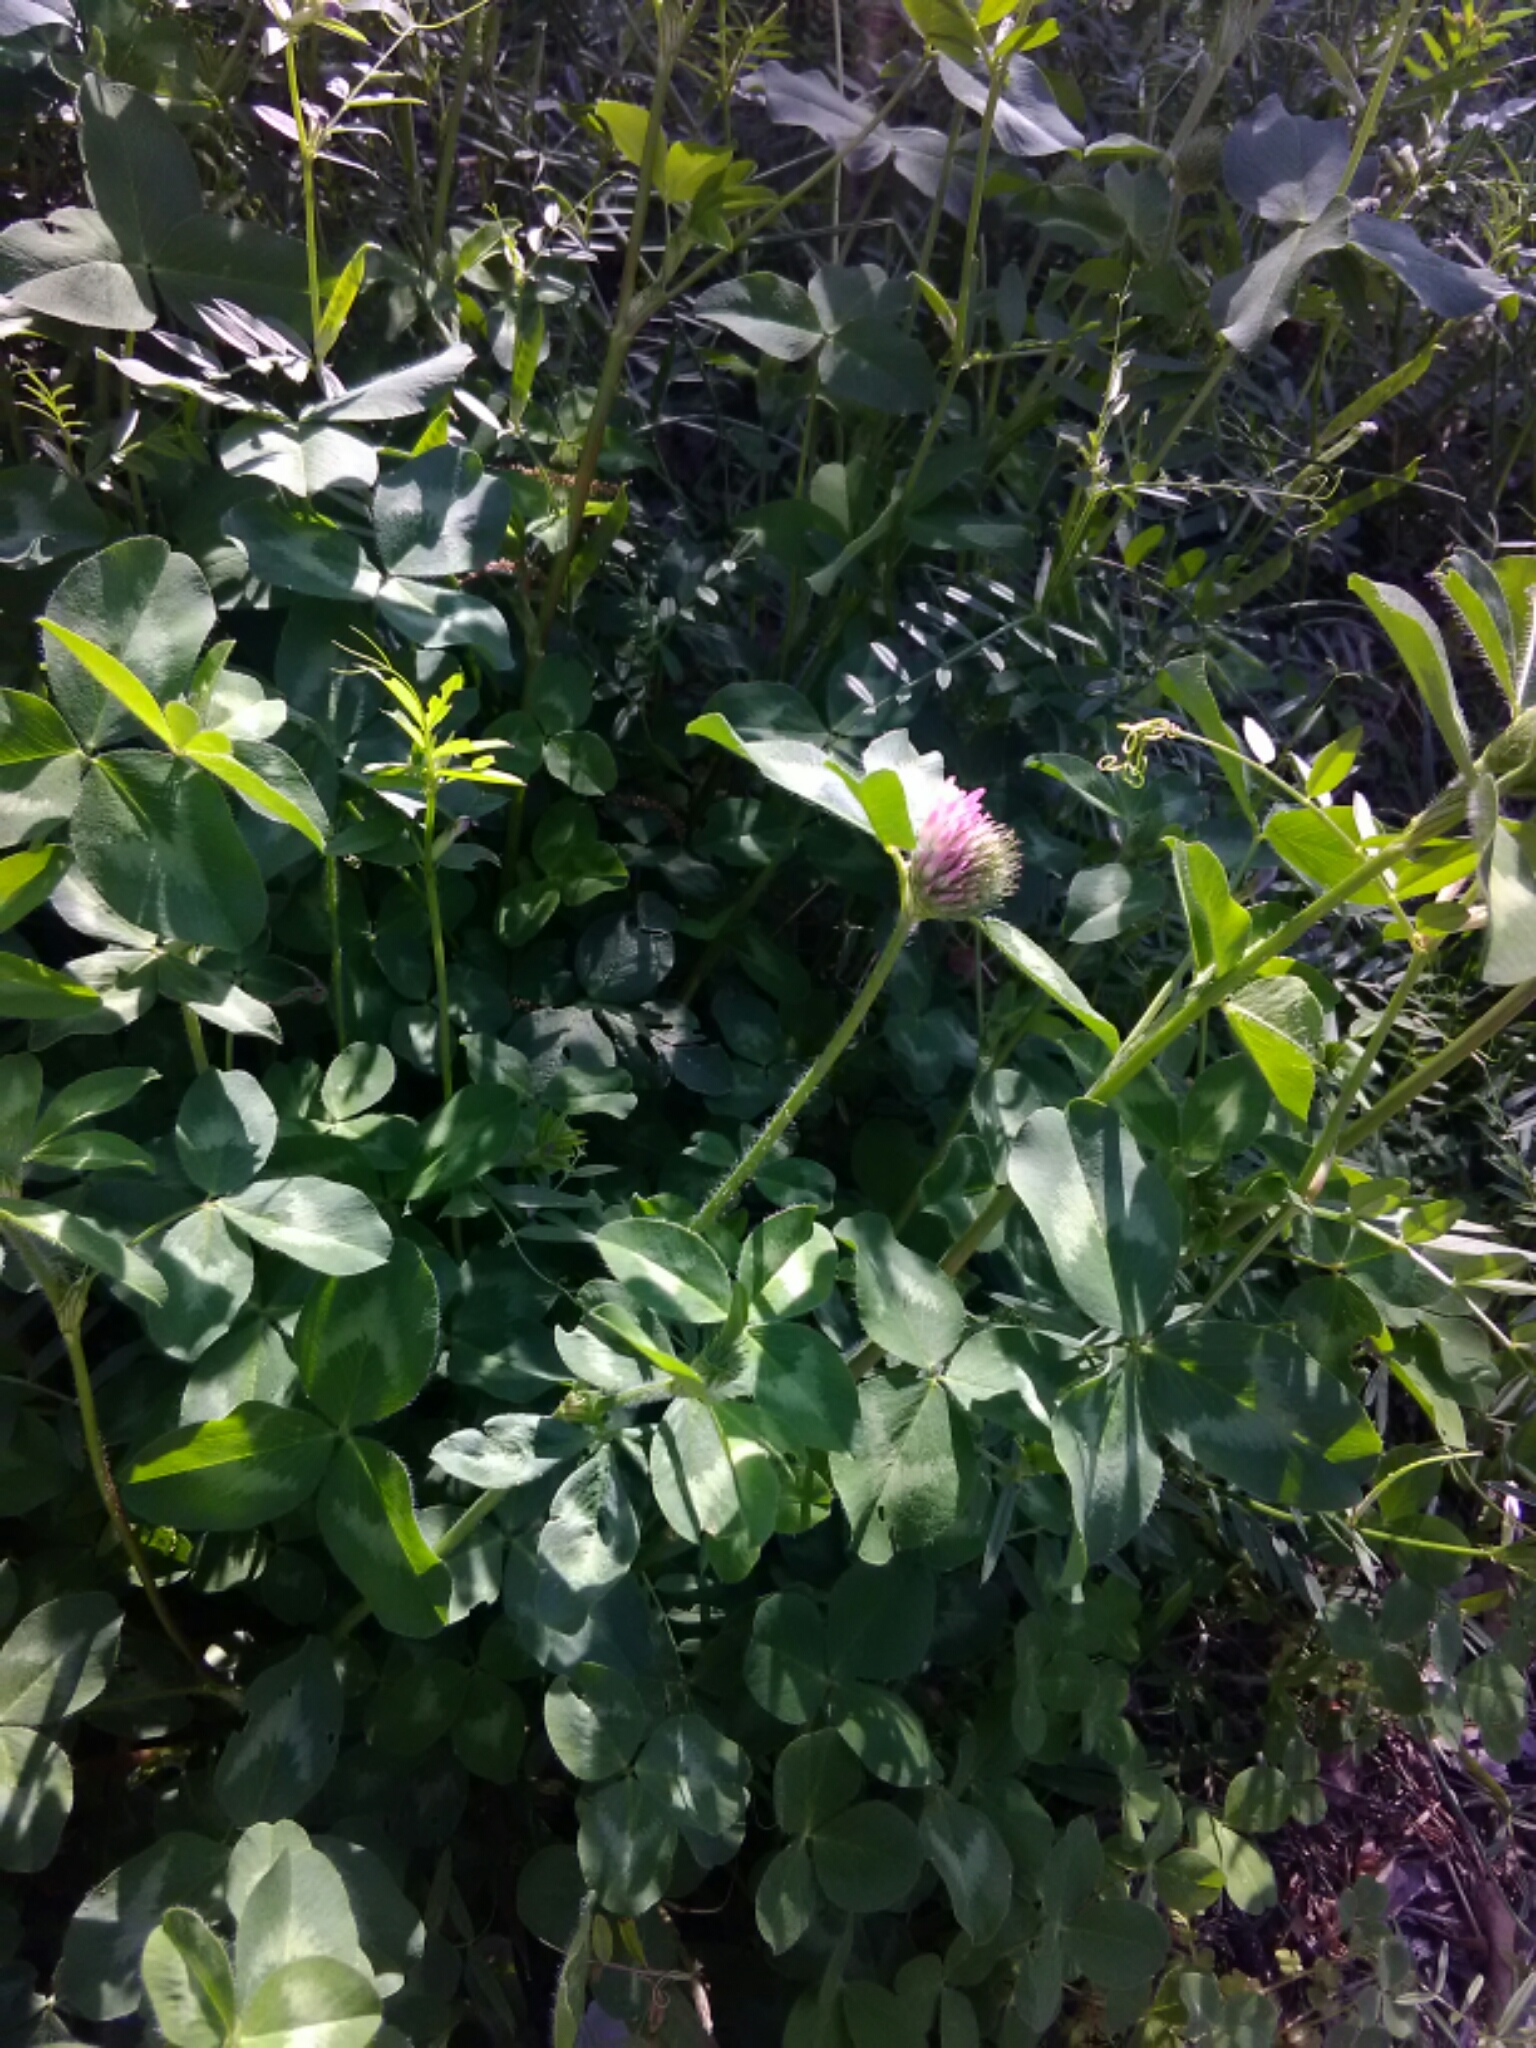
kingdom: Plantae
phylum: Tracheophyta
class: Magnoliopsida
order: Fabales
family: Fabaceae
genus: Trifolium
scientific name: Trifolium pratense
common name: Red clover
